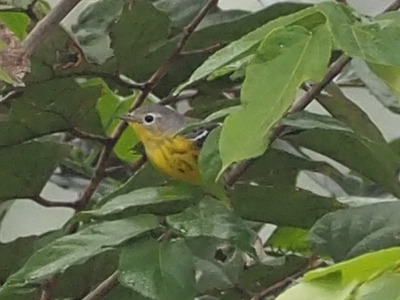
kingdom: Animalia
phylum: Chordata
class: Aves
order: Passeriformes
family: Parulidae
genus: Setophaga
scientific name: Setophaga magnolia
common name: Magnolia warbler
